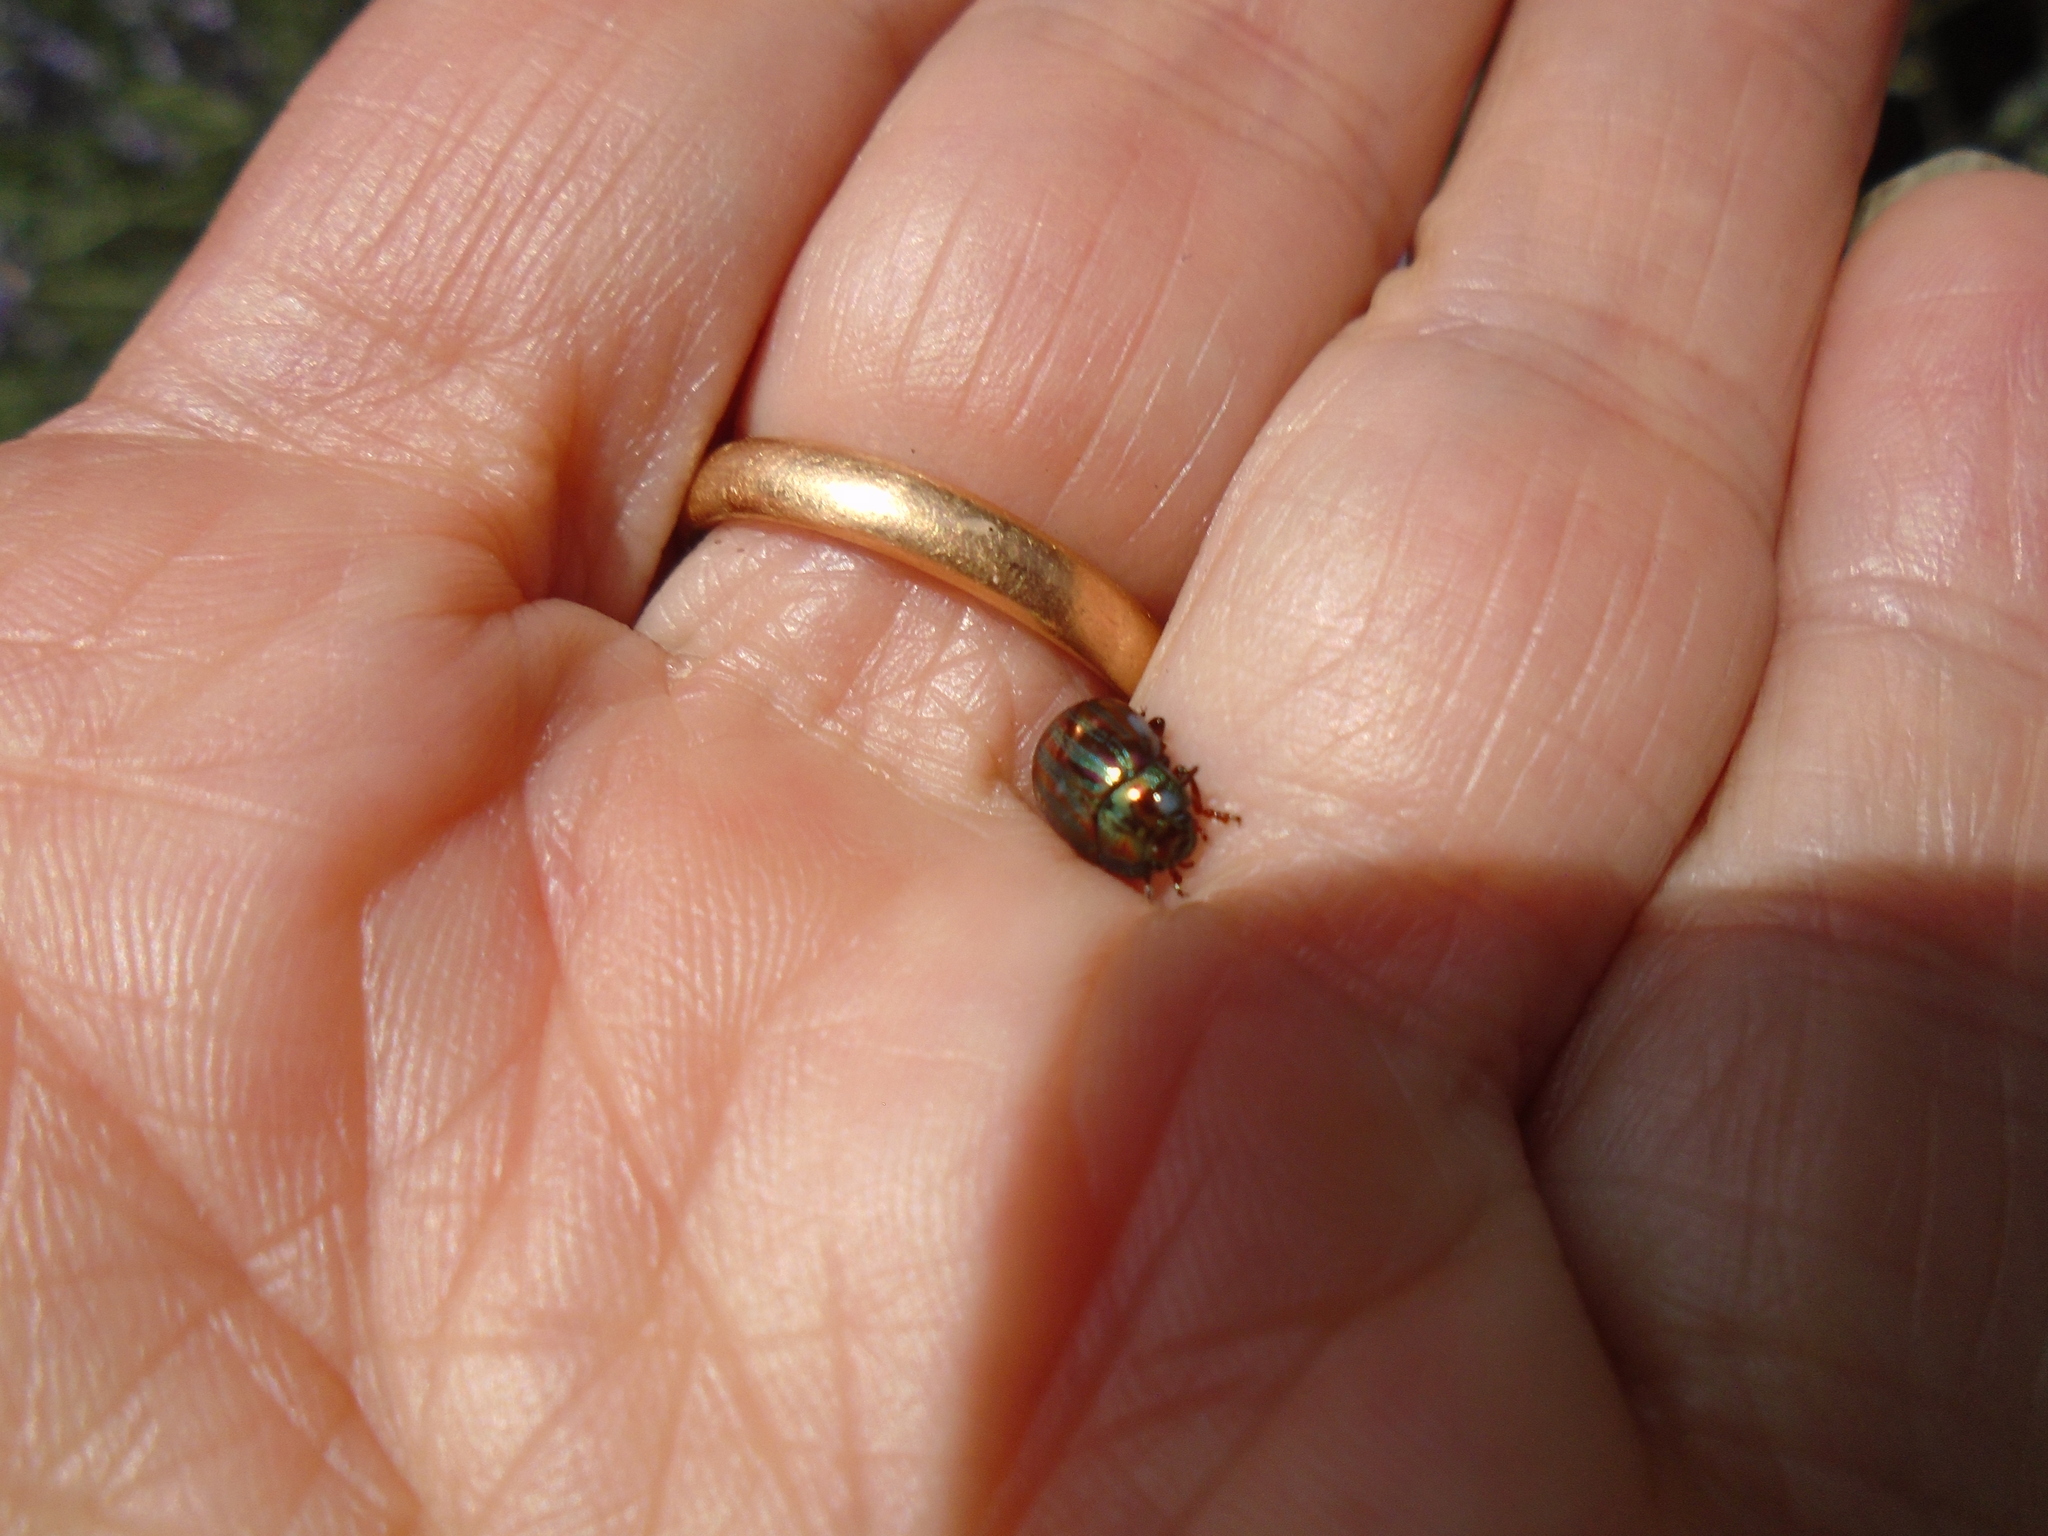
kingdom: Animalia
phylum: Arthropoda
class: Insecta
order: Coleoptera
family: Chrysomelidae
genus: Chrysolina
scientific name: Chrysolina americana
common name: Rosemary beetle
